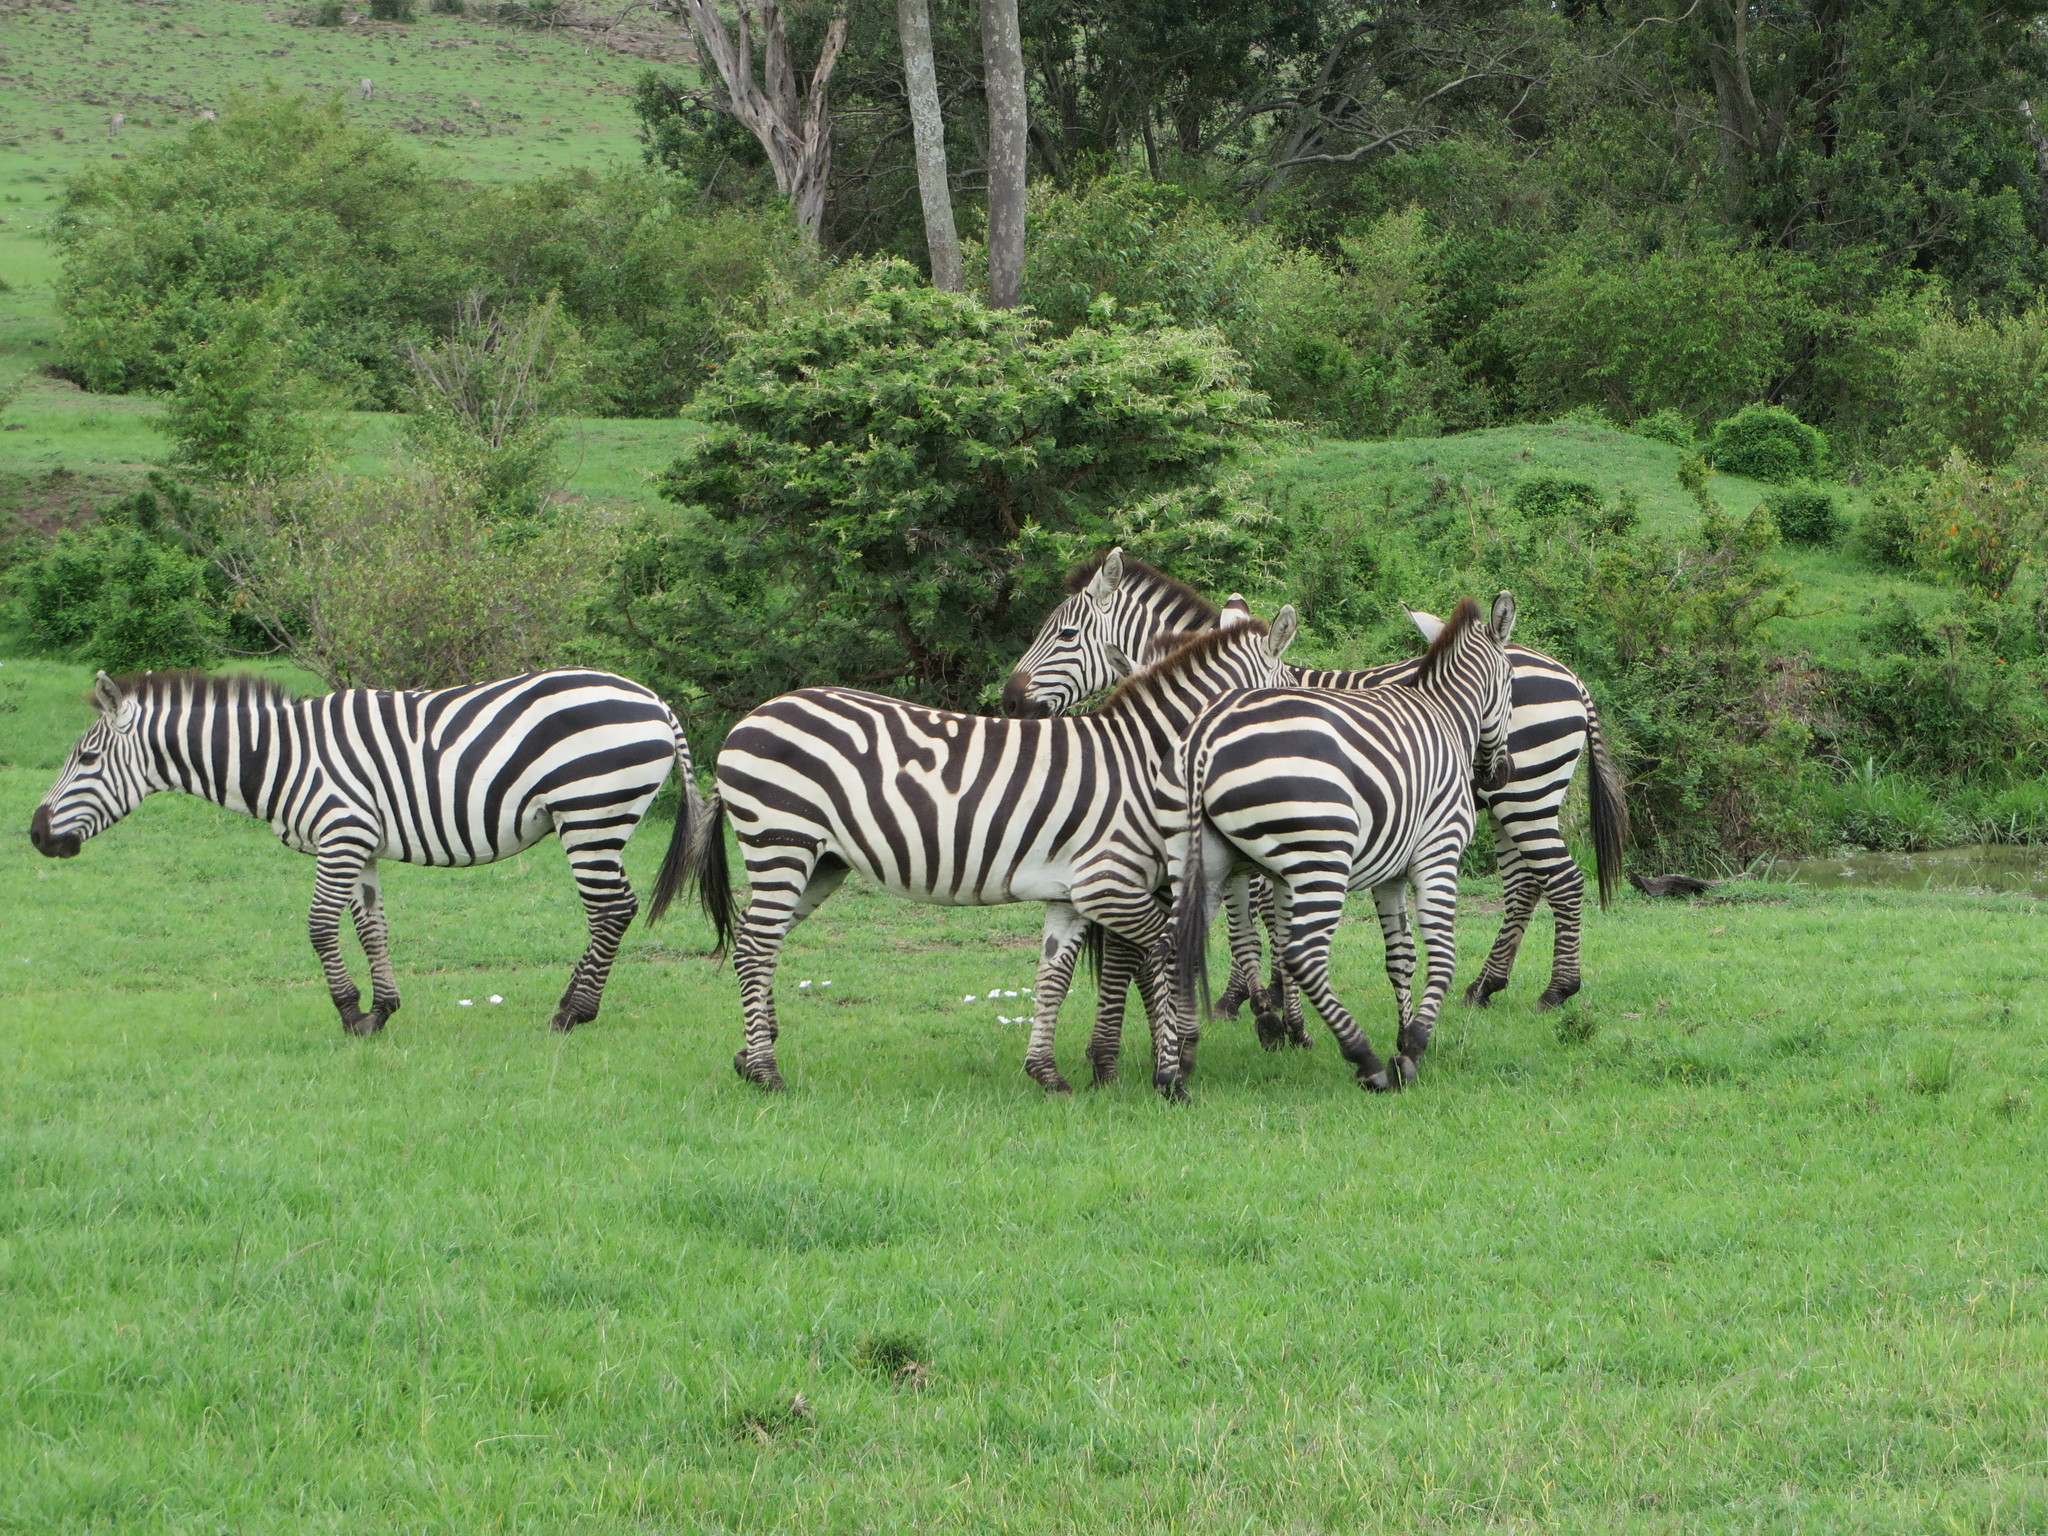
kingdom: Animalia
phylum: Chordata
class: Mammalia
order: Perissodactyla
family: Equidae
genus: Equus
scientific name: Equus quagga
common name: Plains zebra
